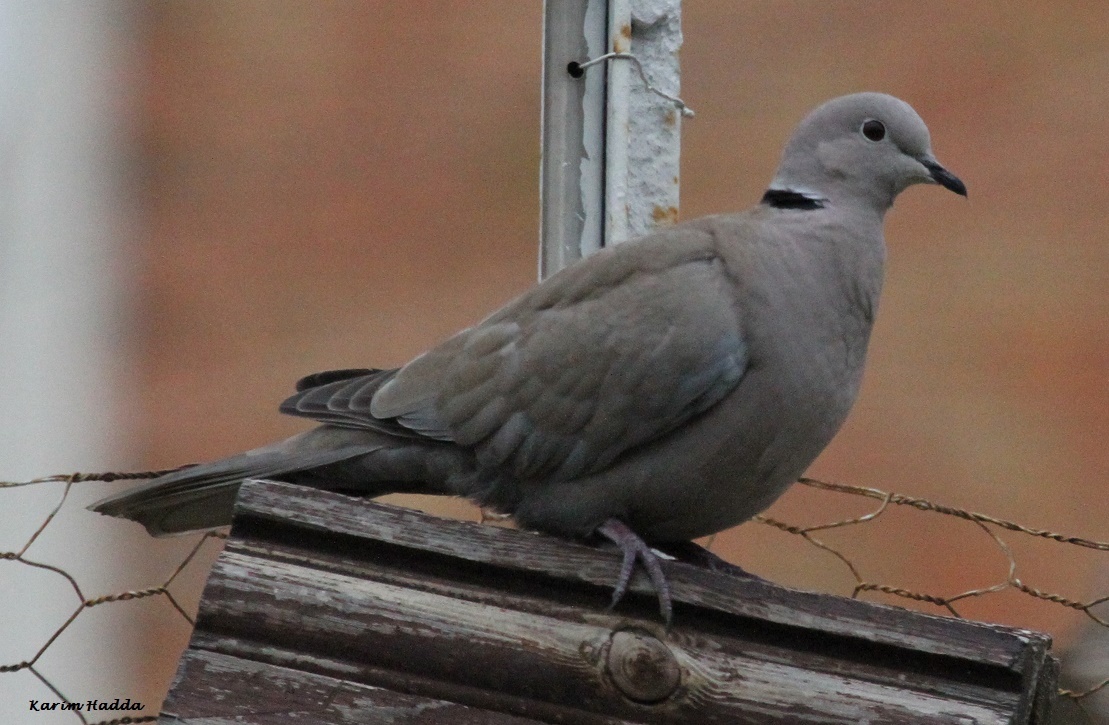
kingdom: Animalia
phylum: Chordata
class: Aves
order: Columbiformes
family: Columbidae
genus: Streptopelia
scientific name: Streptopelia decaocto
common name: Eurasian collared dove
